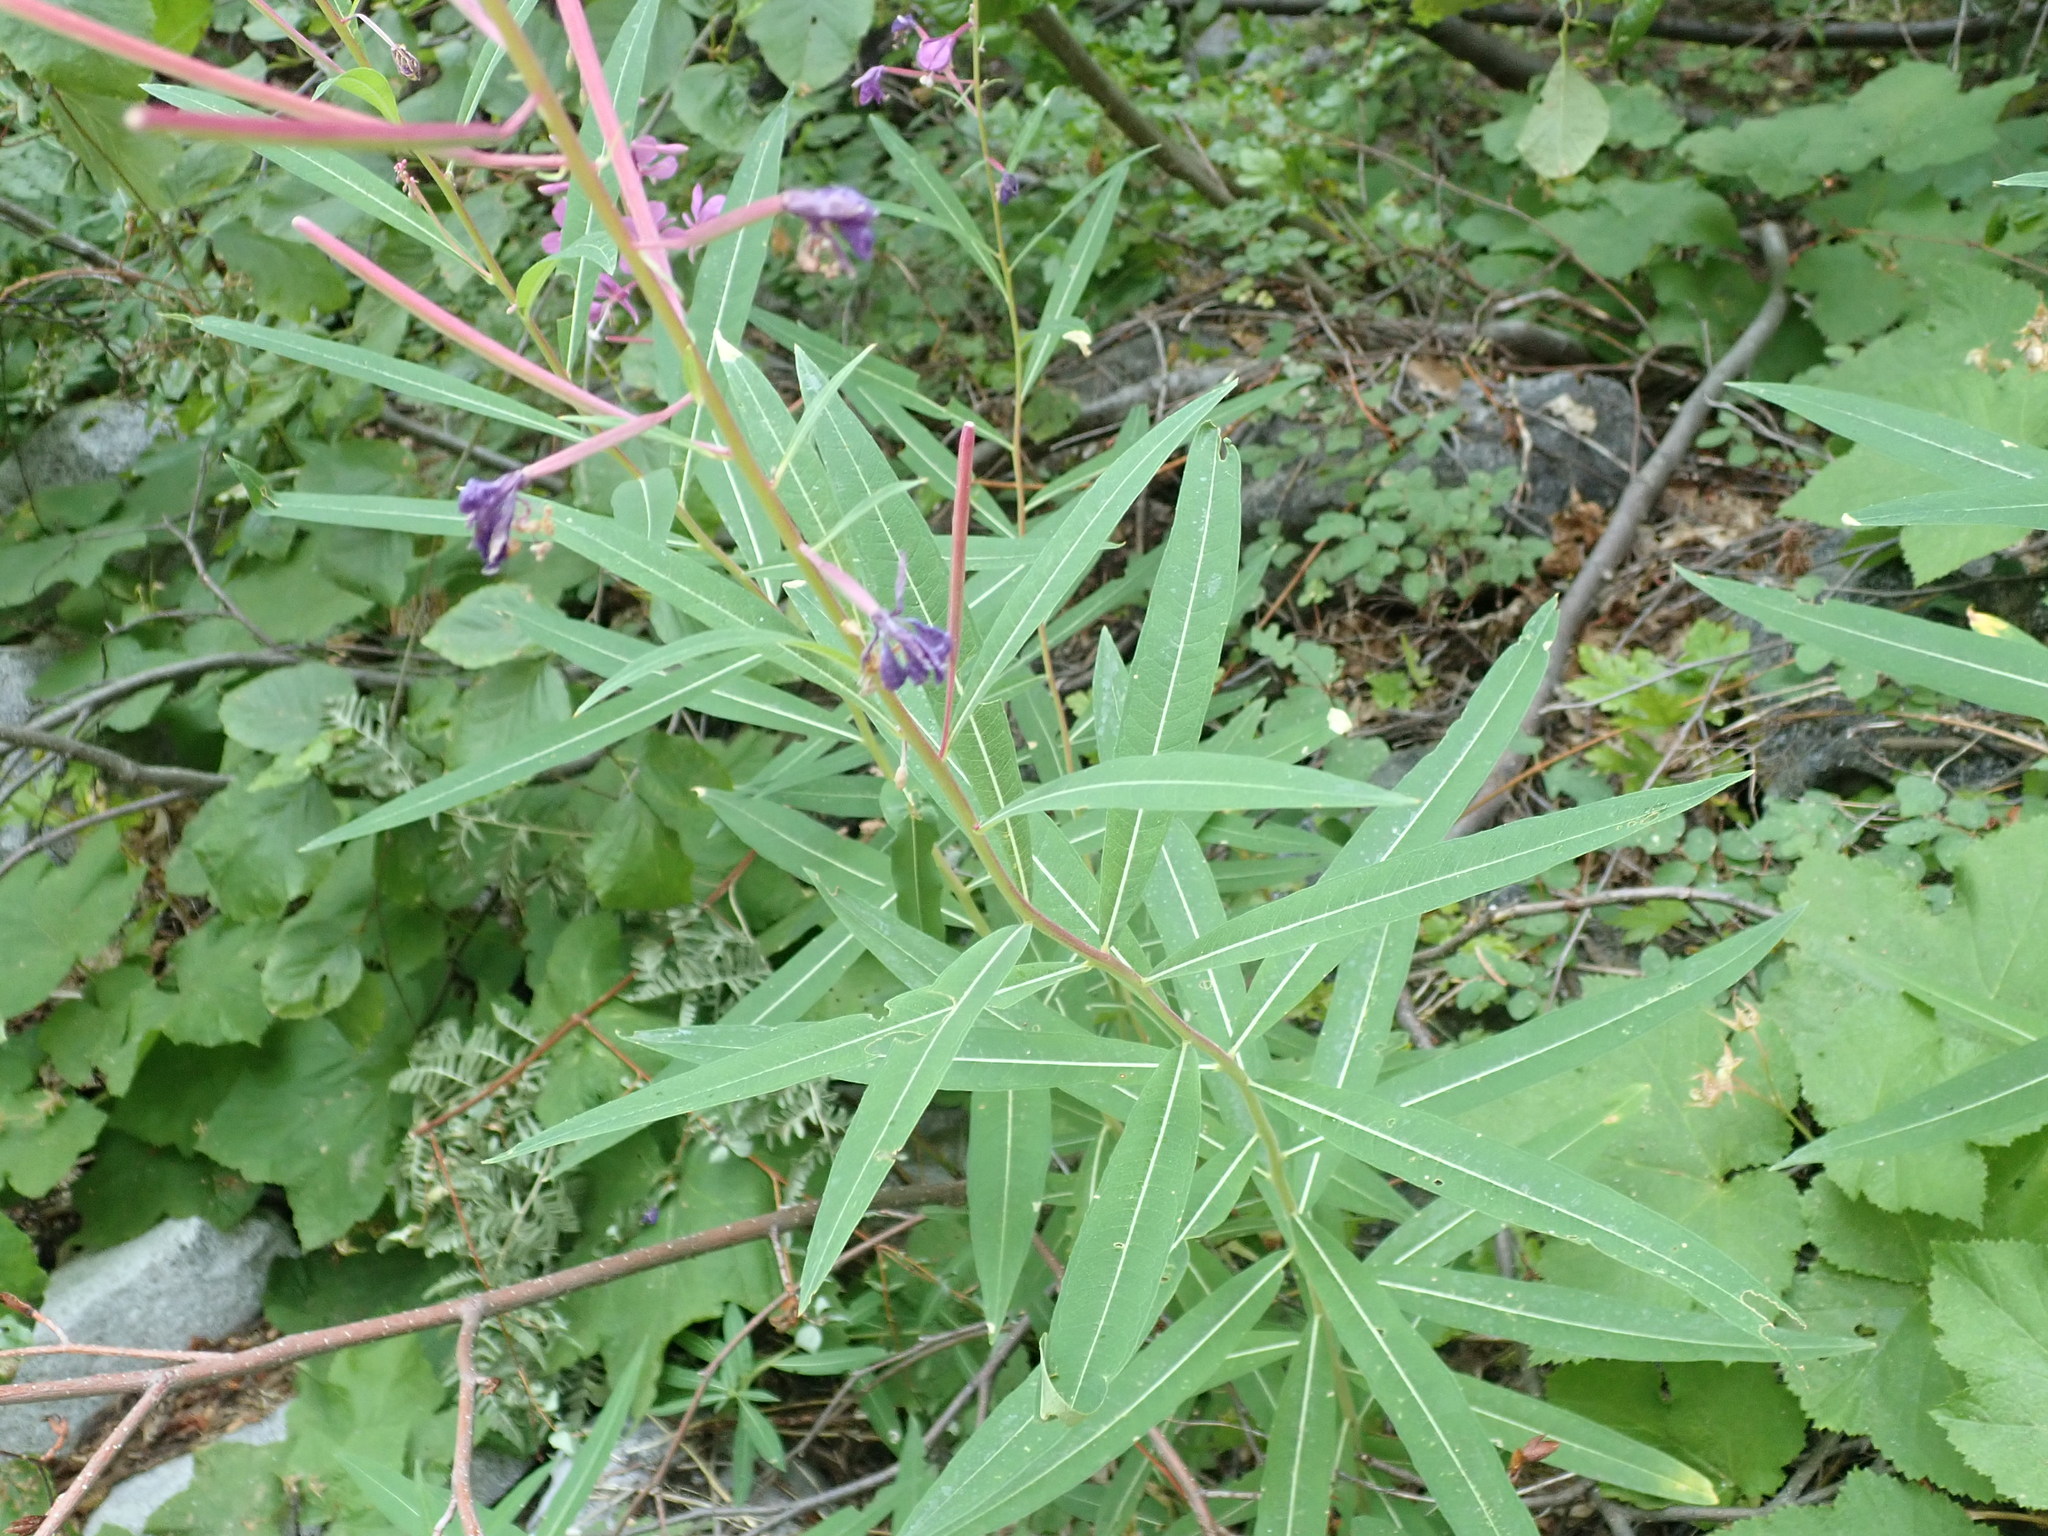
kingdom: Plantae
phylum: Tracheophyta
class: Magnoliopsida
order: Myrtales
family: Onagraceae
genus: Chamaenerion
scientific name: Chamaenerion angustifolium
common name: Fireweed
